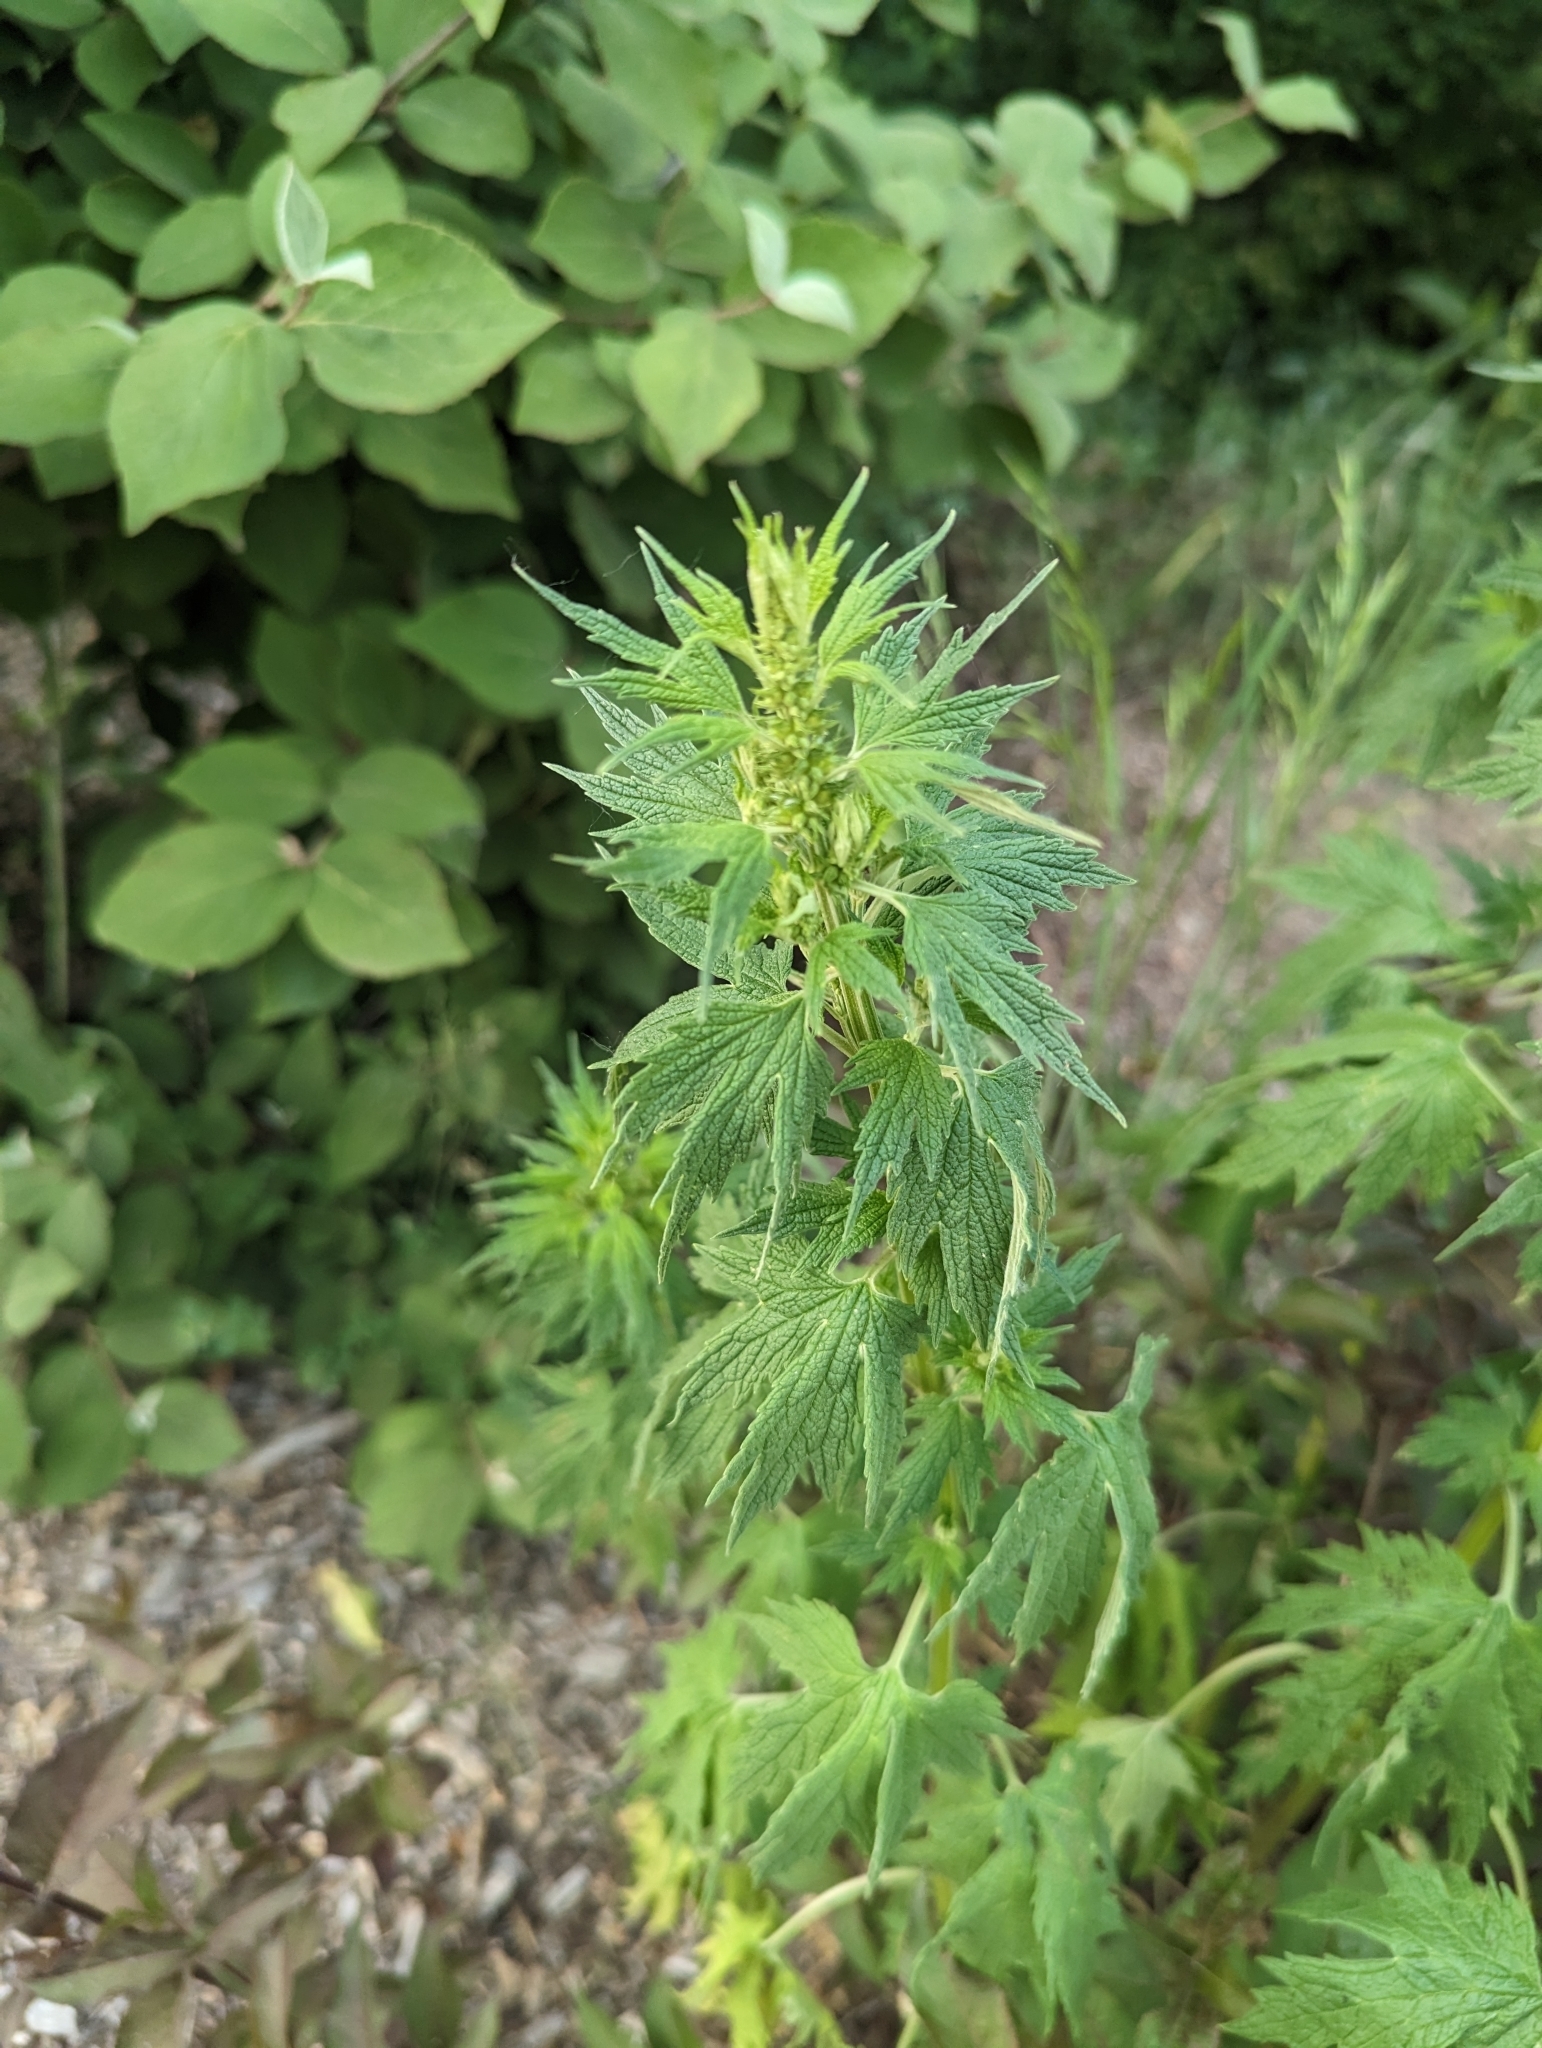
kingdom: Plantae
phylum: Tracheophyta
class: Magnoliopsida
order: Lamiales
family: Lamiaceae
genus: Leonurus
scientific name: Leonurus cardiaca
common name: Motherwort
